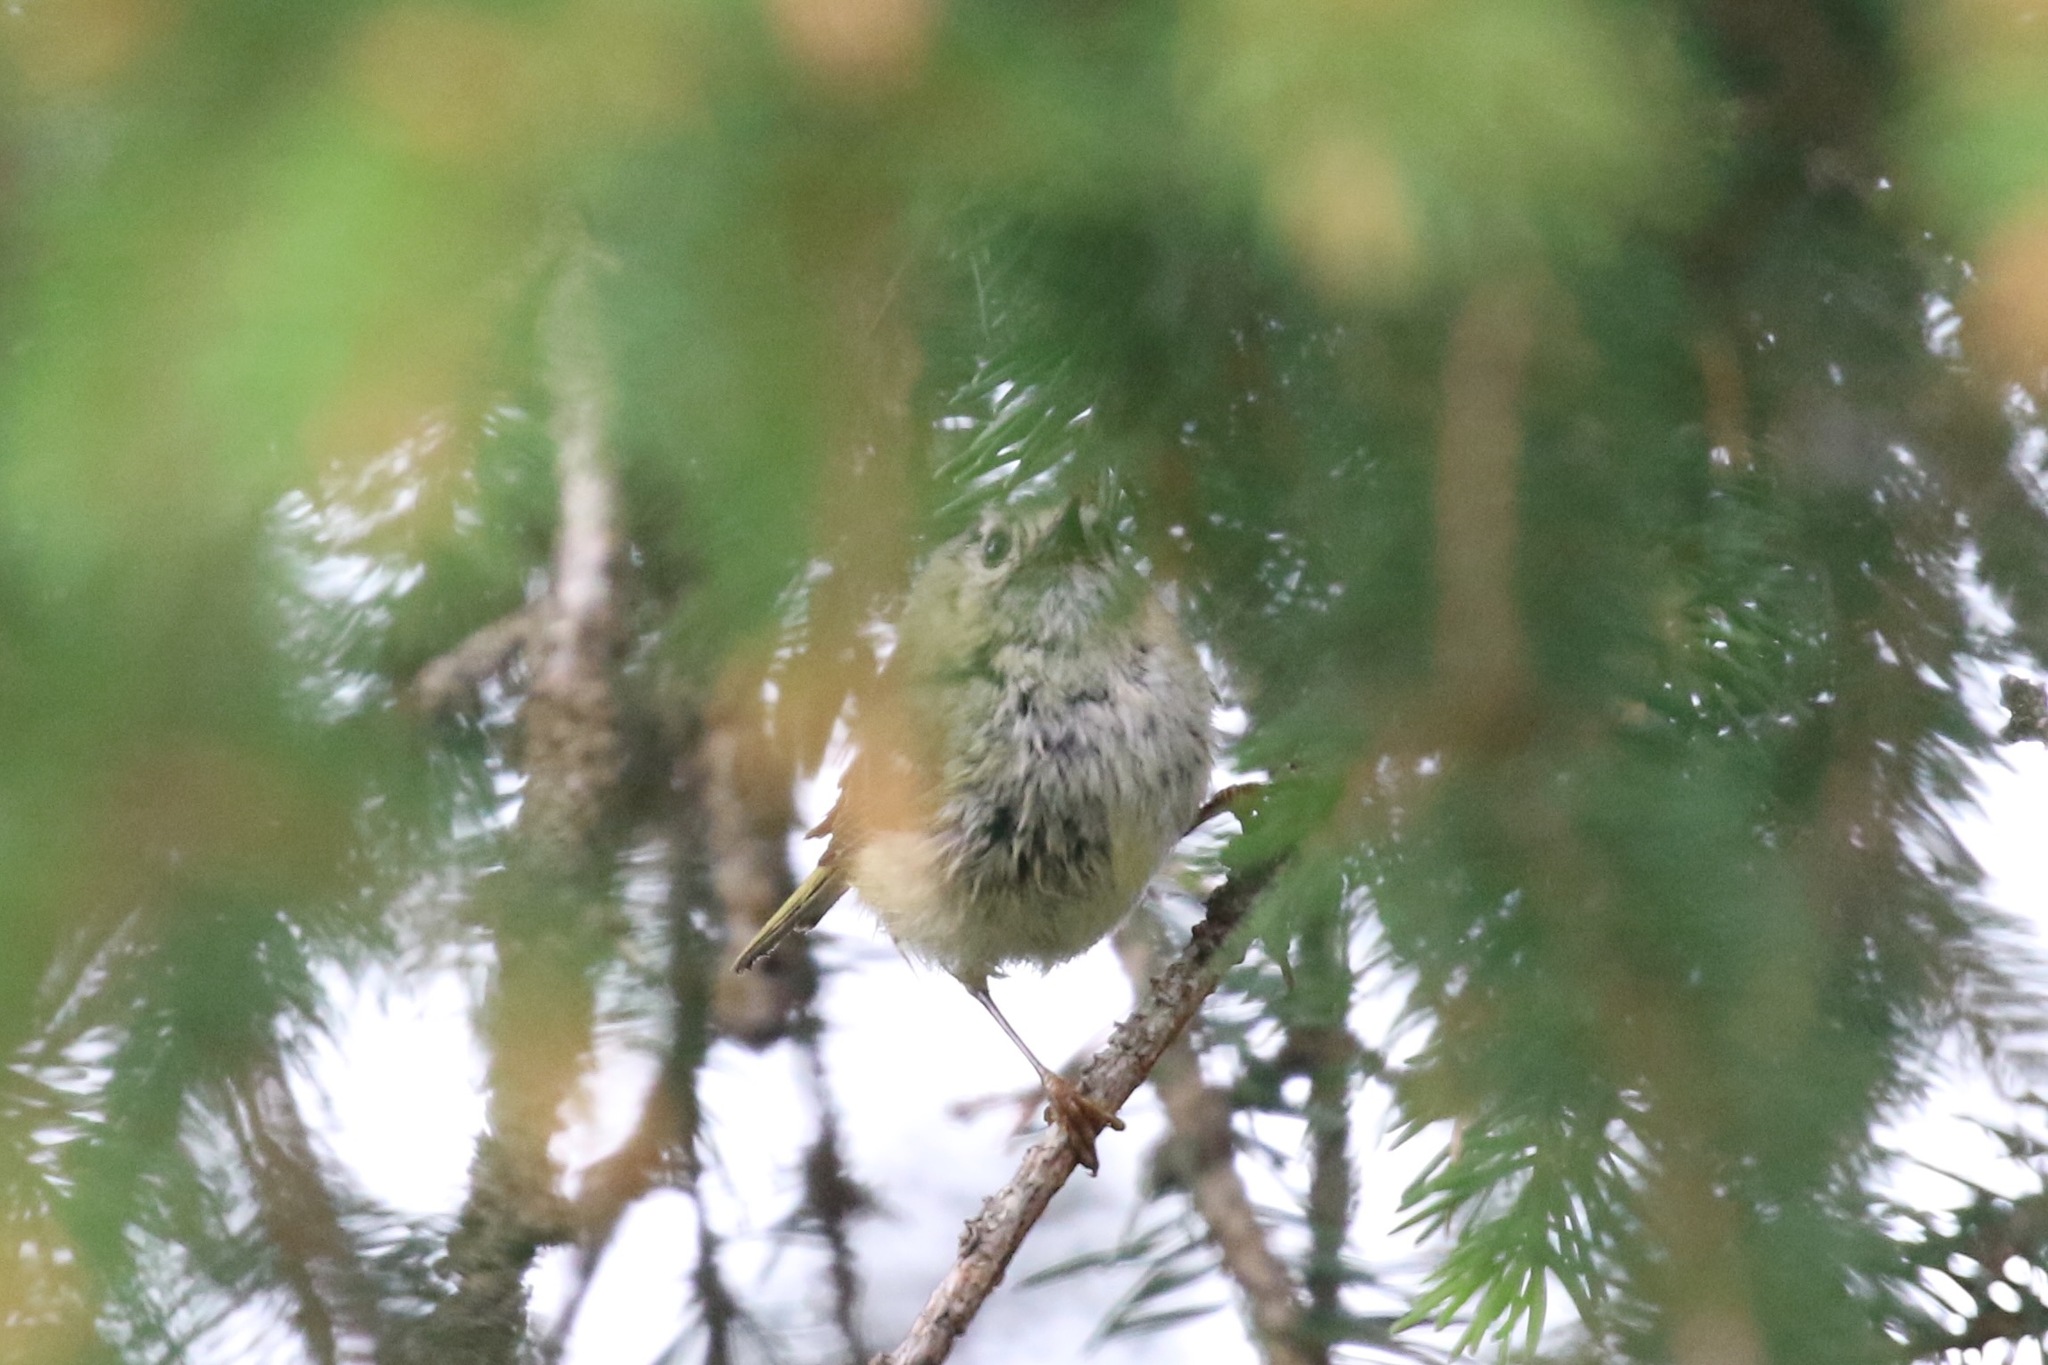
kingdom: Animalia
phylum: Chordata
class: Aves
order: Passeriformes
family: Regulidae
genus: Regulus
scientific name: Regulus regulus
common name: Goldcrest
